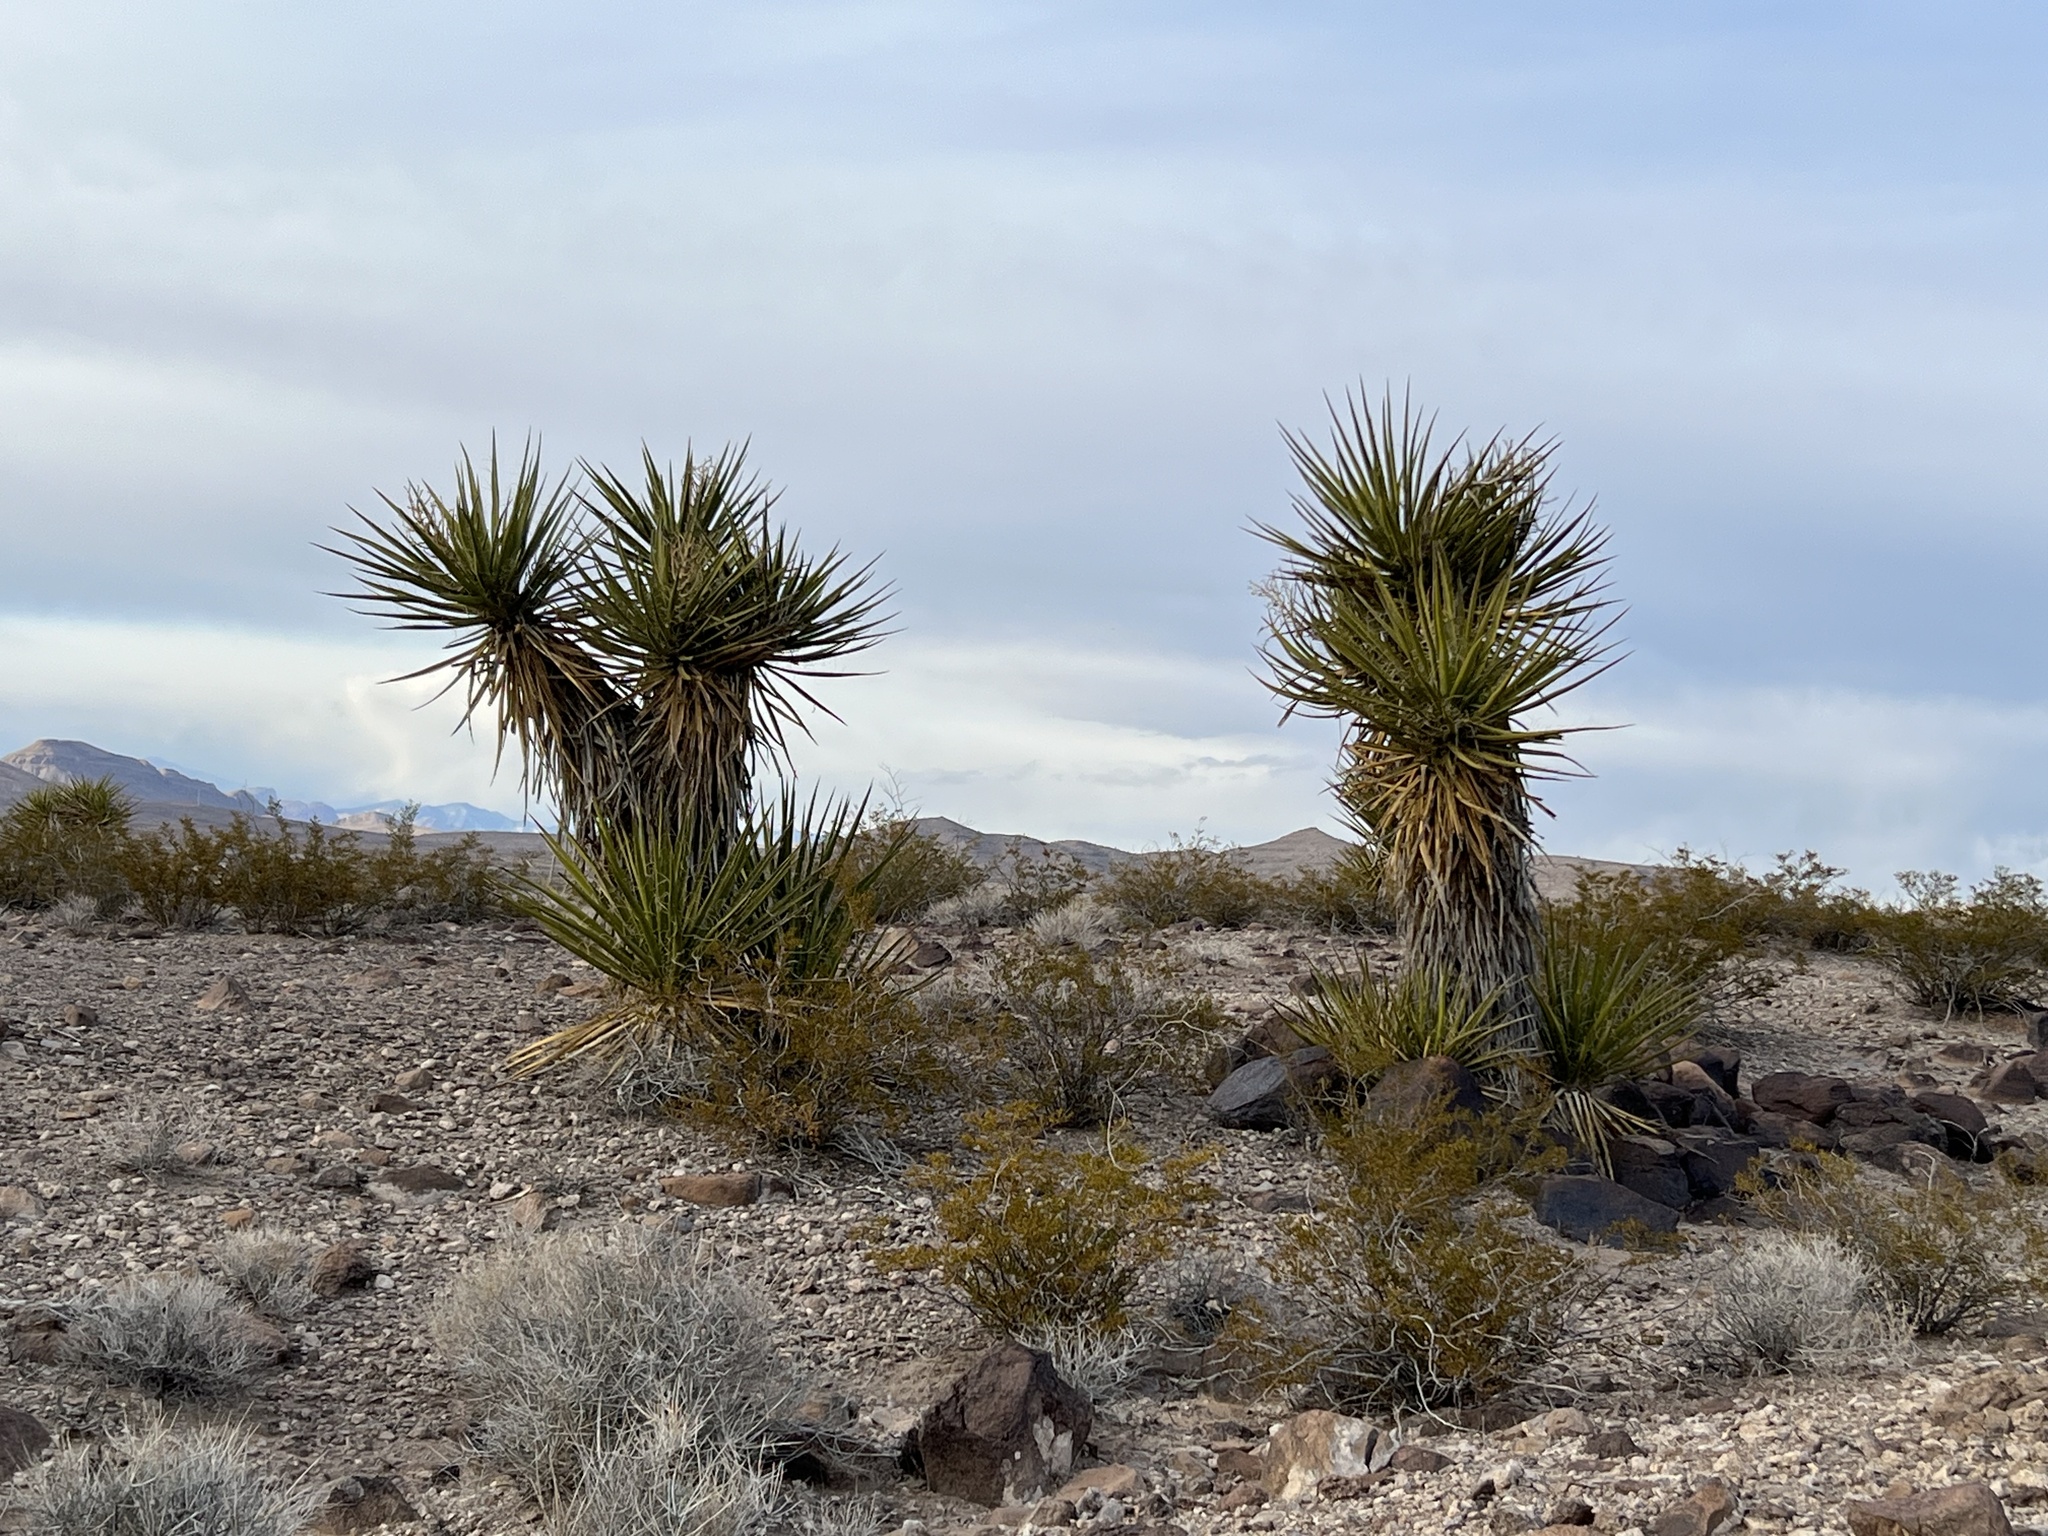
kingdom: Plantae
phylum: Tracheophyta
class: Liliopsida
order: Asparagales
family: Asparagaceae
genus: Yucca
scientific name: Yucca schidigera
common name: Mojave yucca
